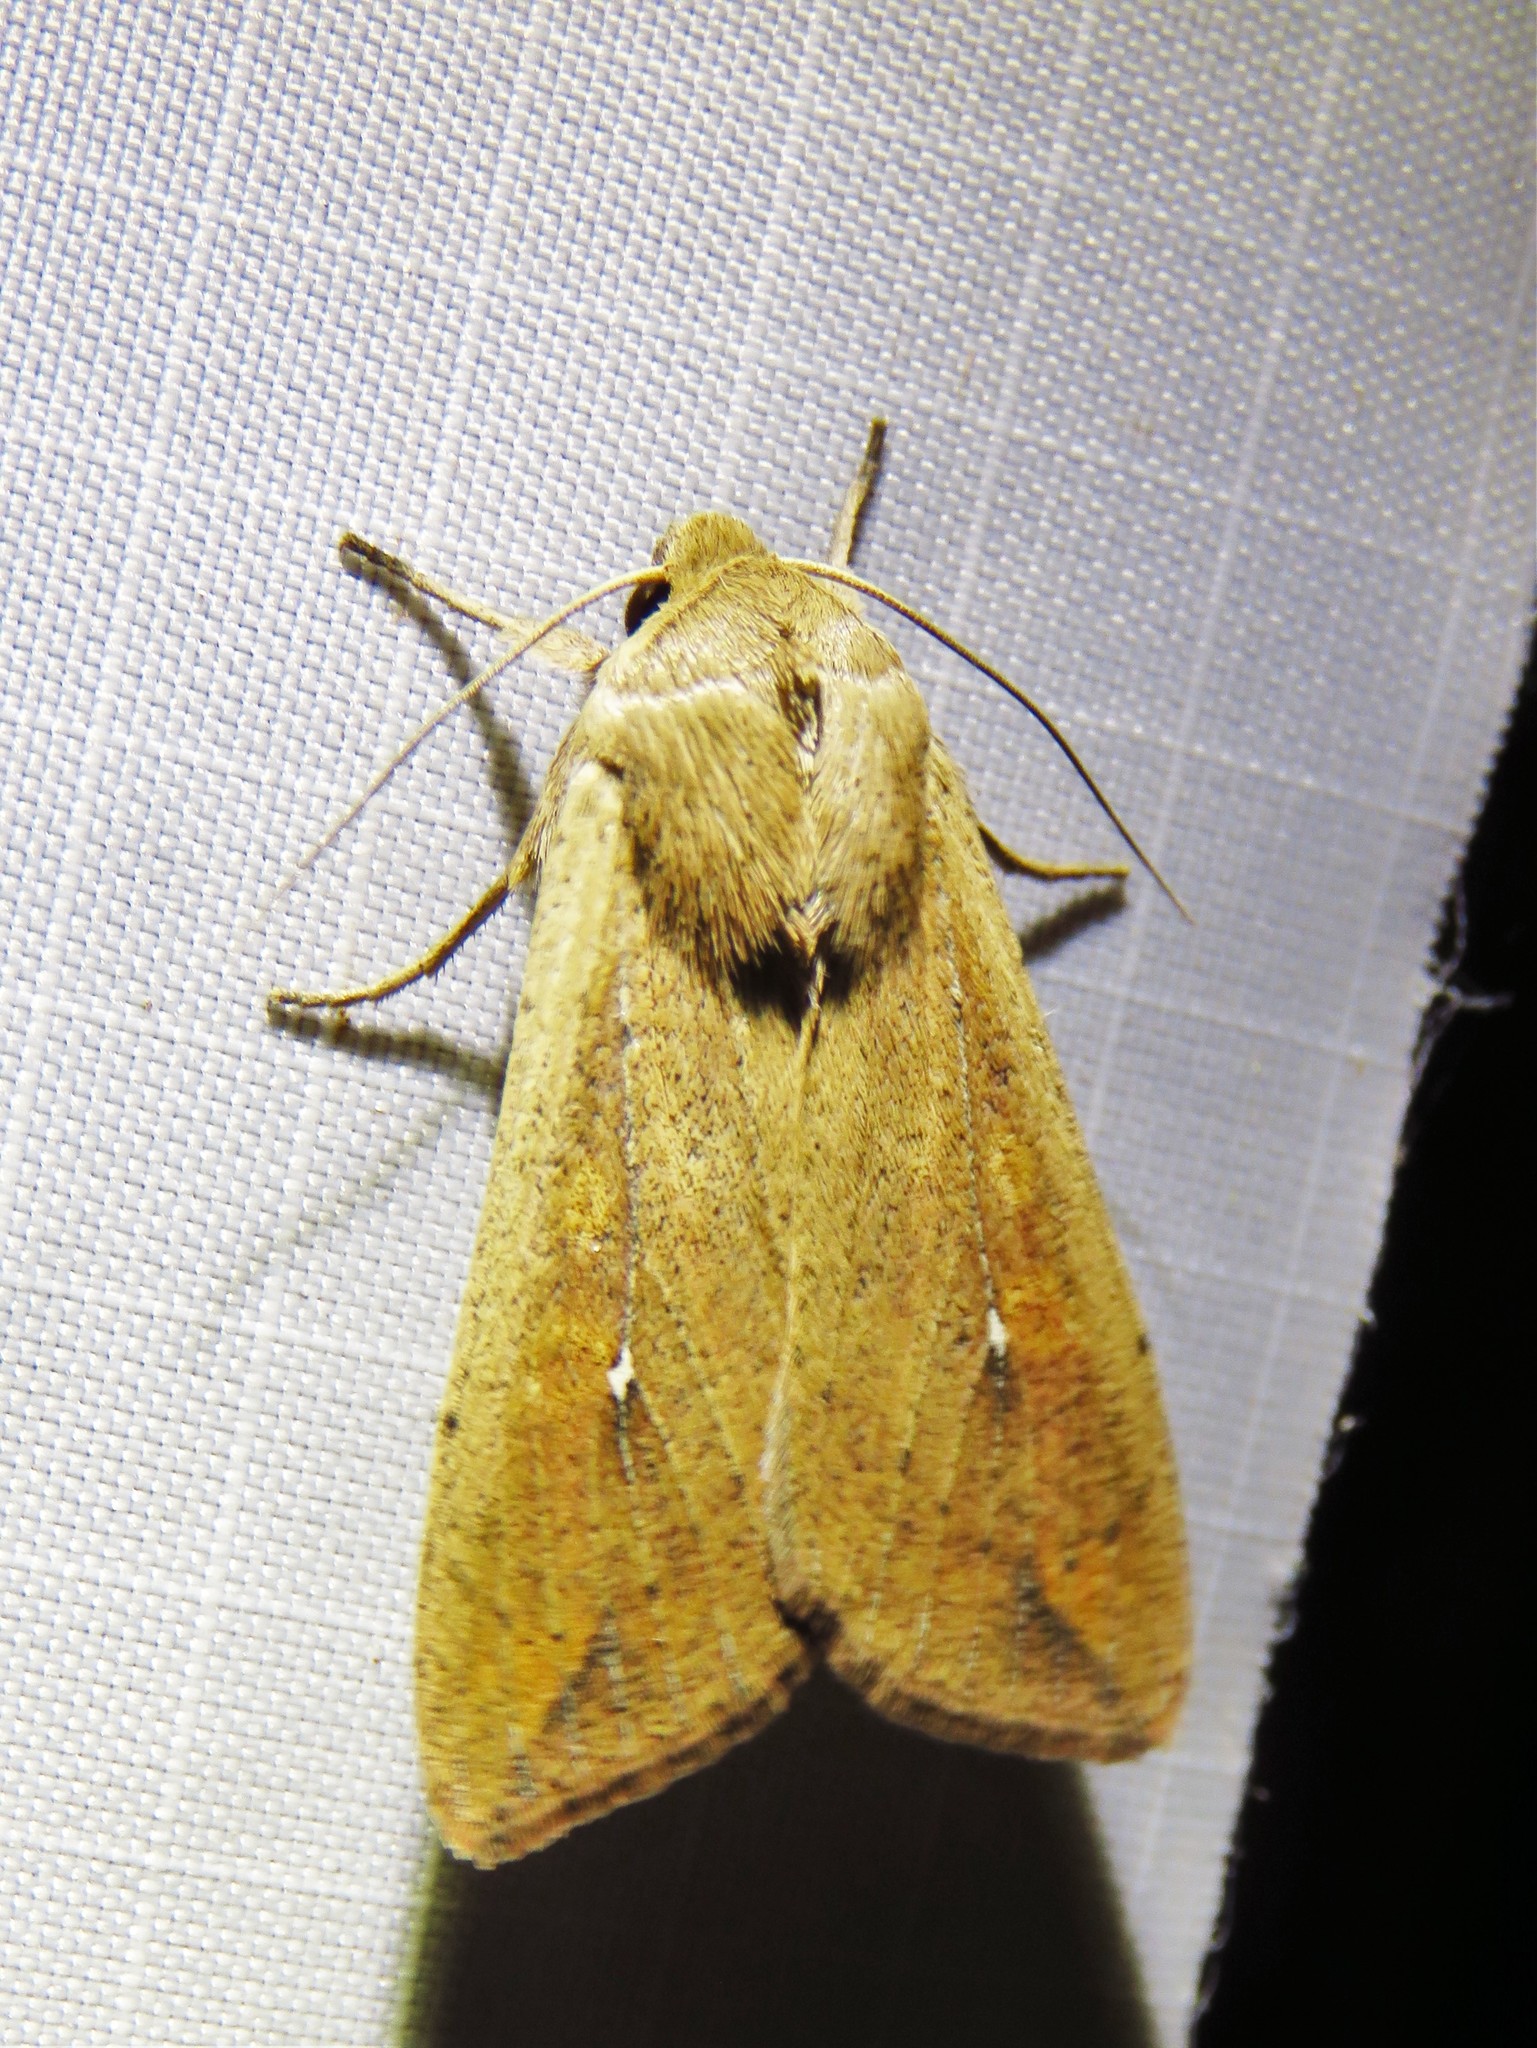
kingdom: Animalia
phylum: Arthropoda
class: Insecta
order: Lepidoptera
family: Noctuidae
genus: Mythimna
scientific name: Mythimna unipuncta
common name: White-speck
